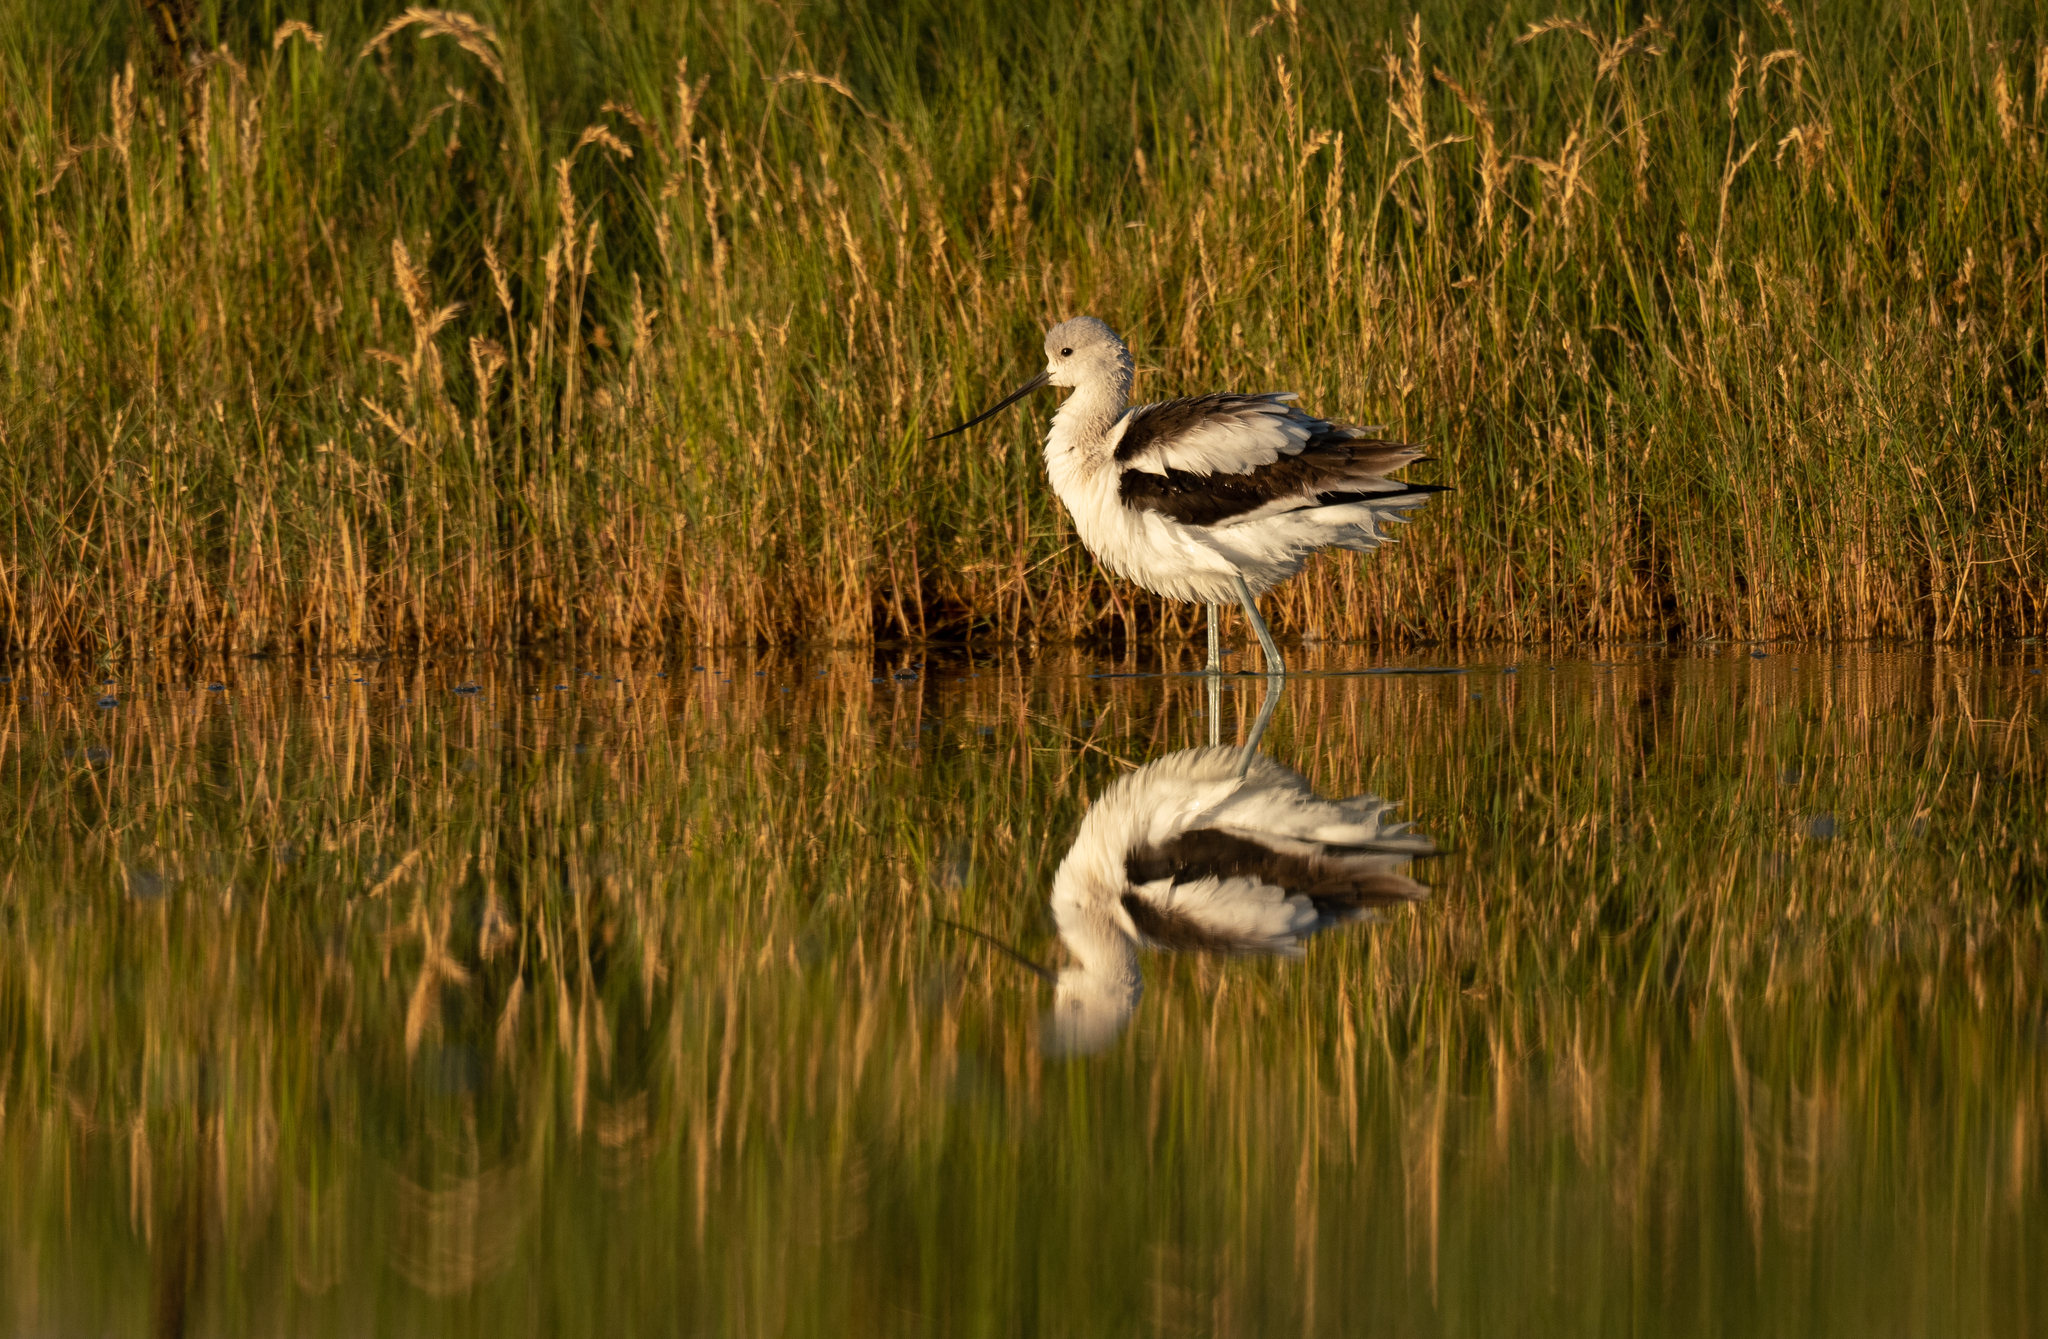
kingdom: Animalia
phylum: Chordata
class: Aves
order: Charadriiformes
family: Recurvirostridae
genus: Recurvirostra
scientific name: Recurvirostra americana
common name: American avocet
